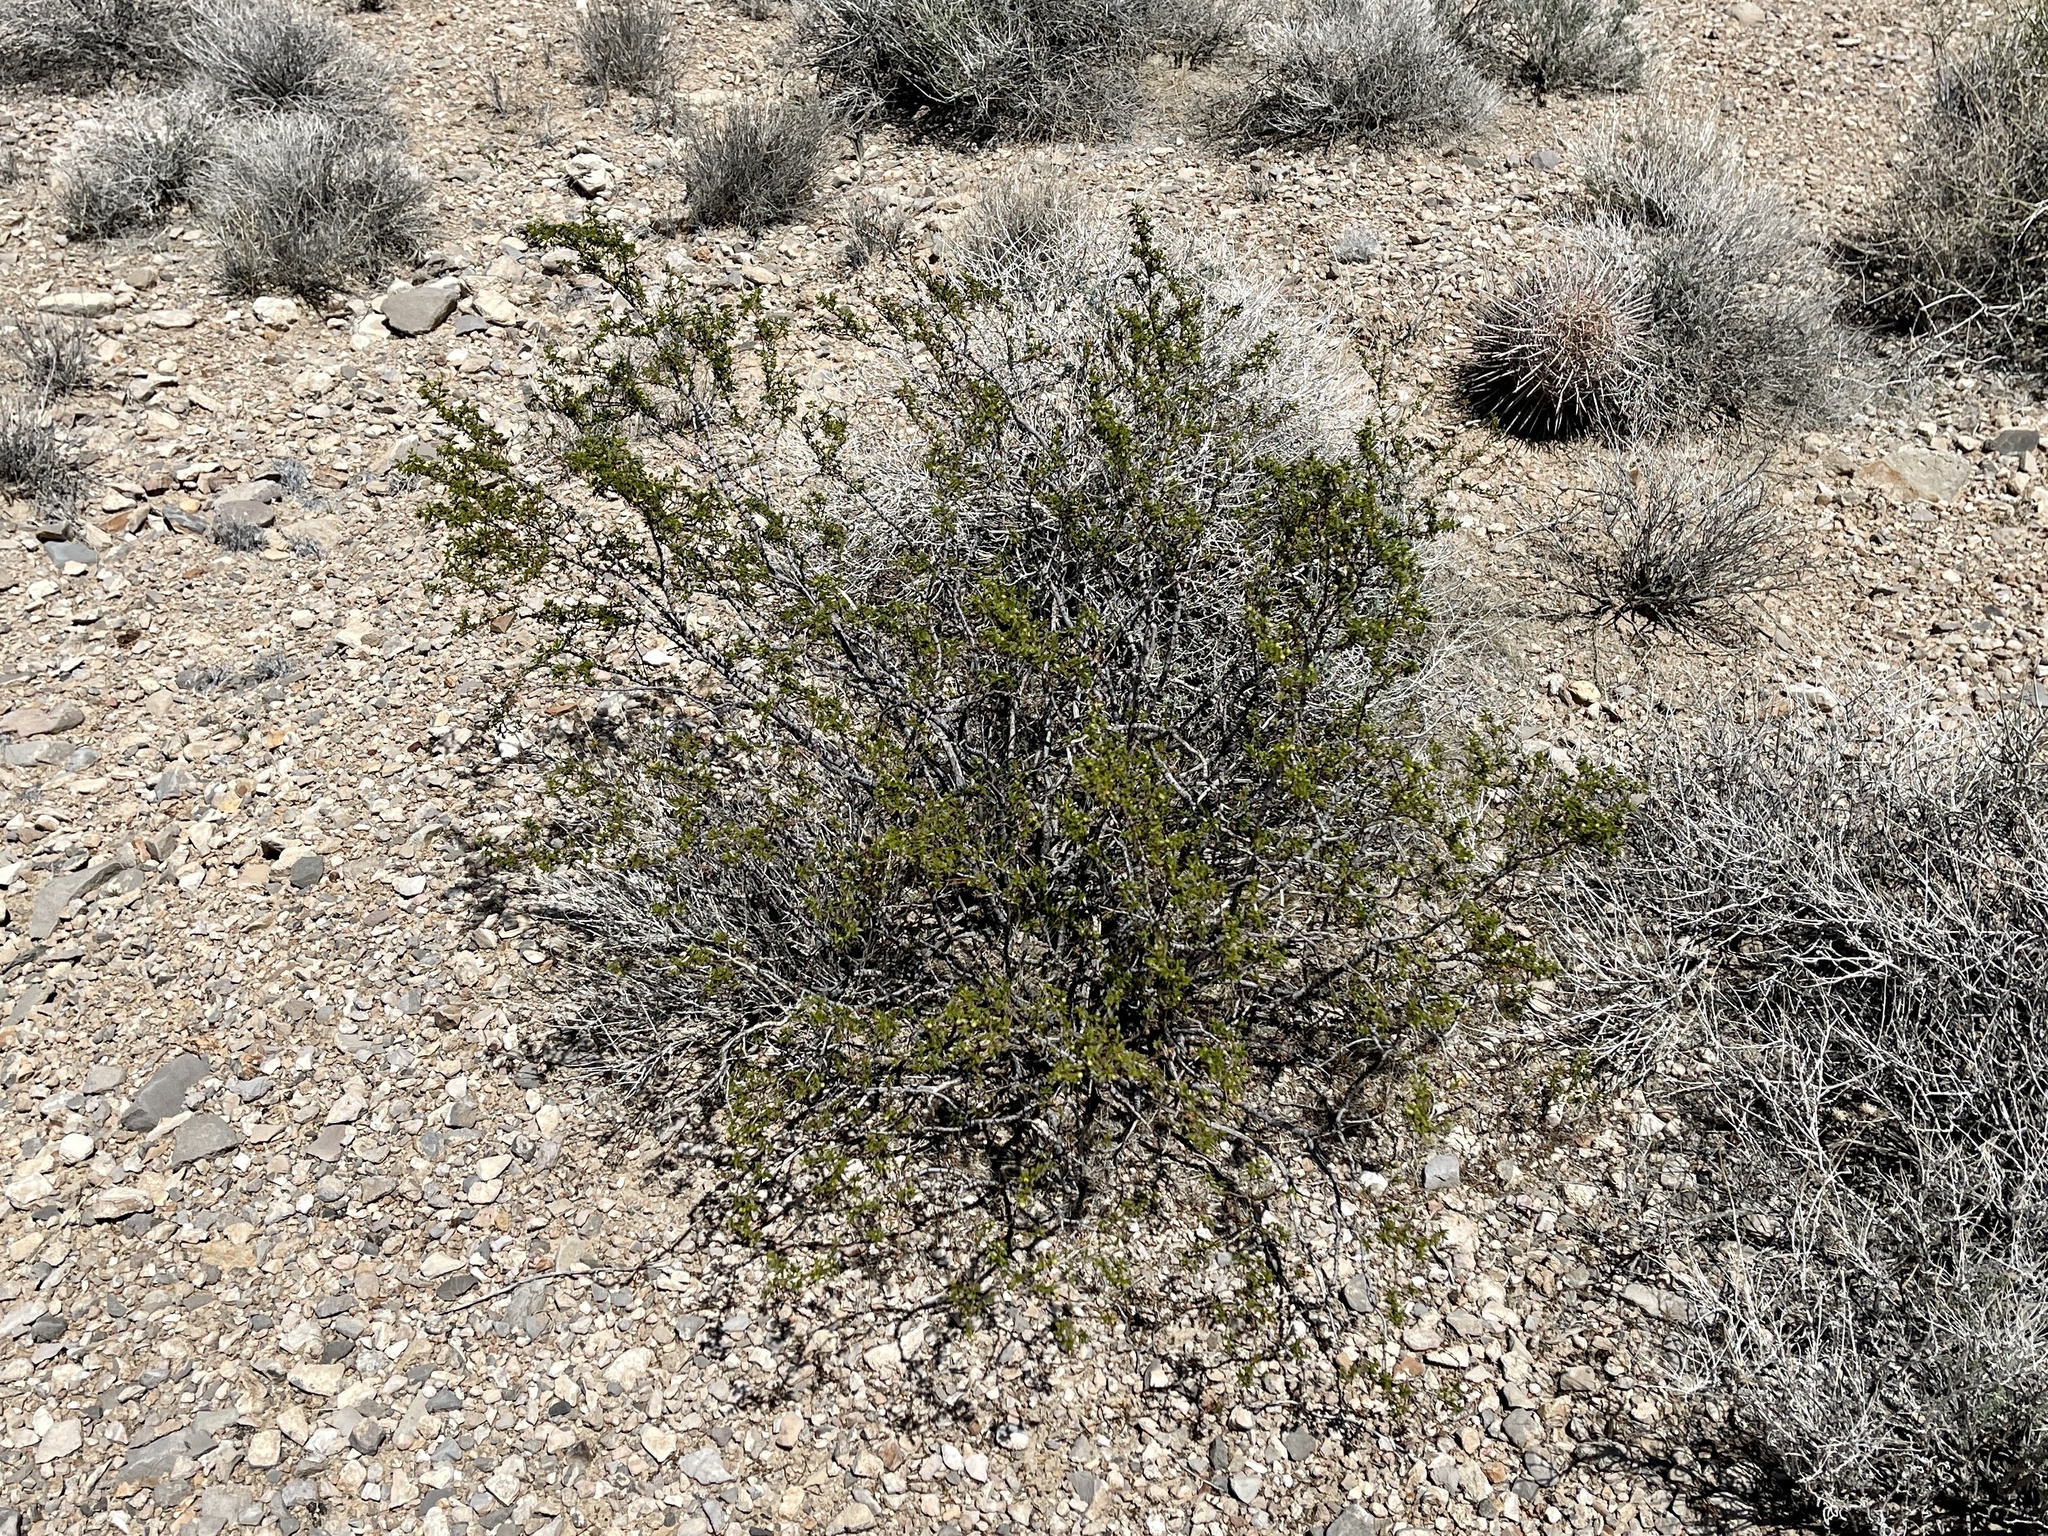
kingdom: Plantae
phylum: Tracheophyta
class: Magnoliopsida
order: Zygophyllales
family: Zygophyllaceae
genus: Larrea
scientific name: Larrea tridentata
